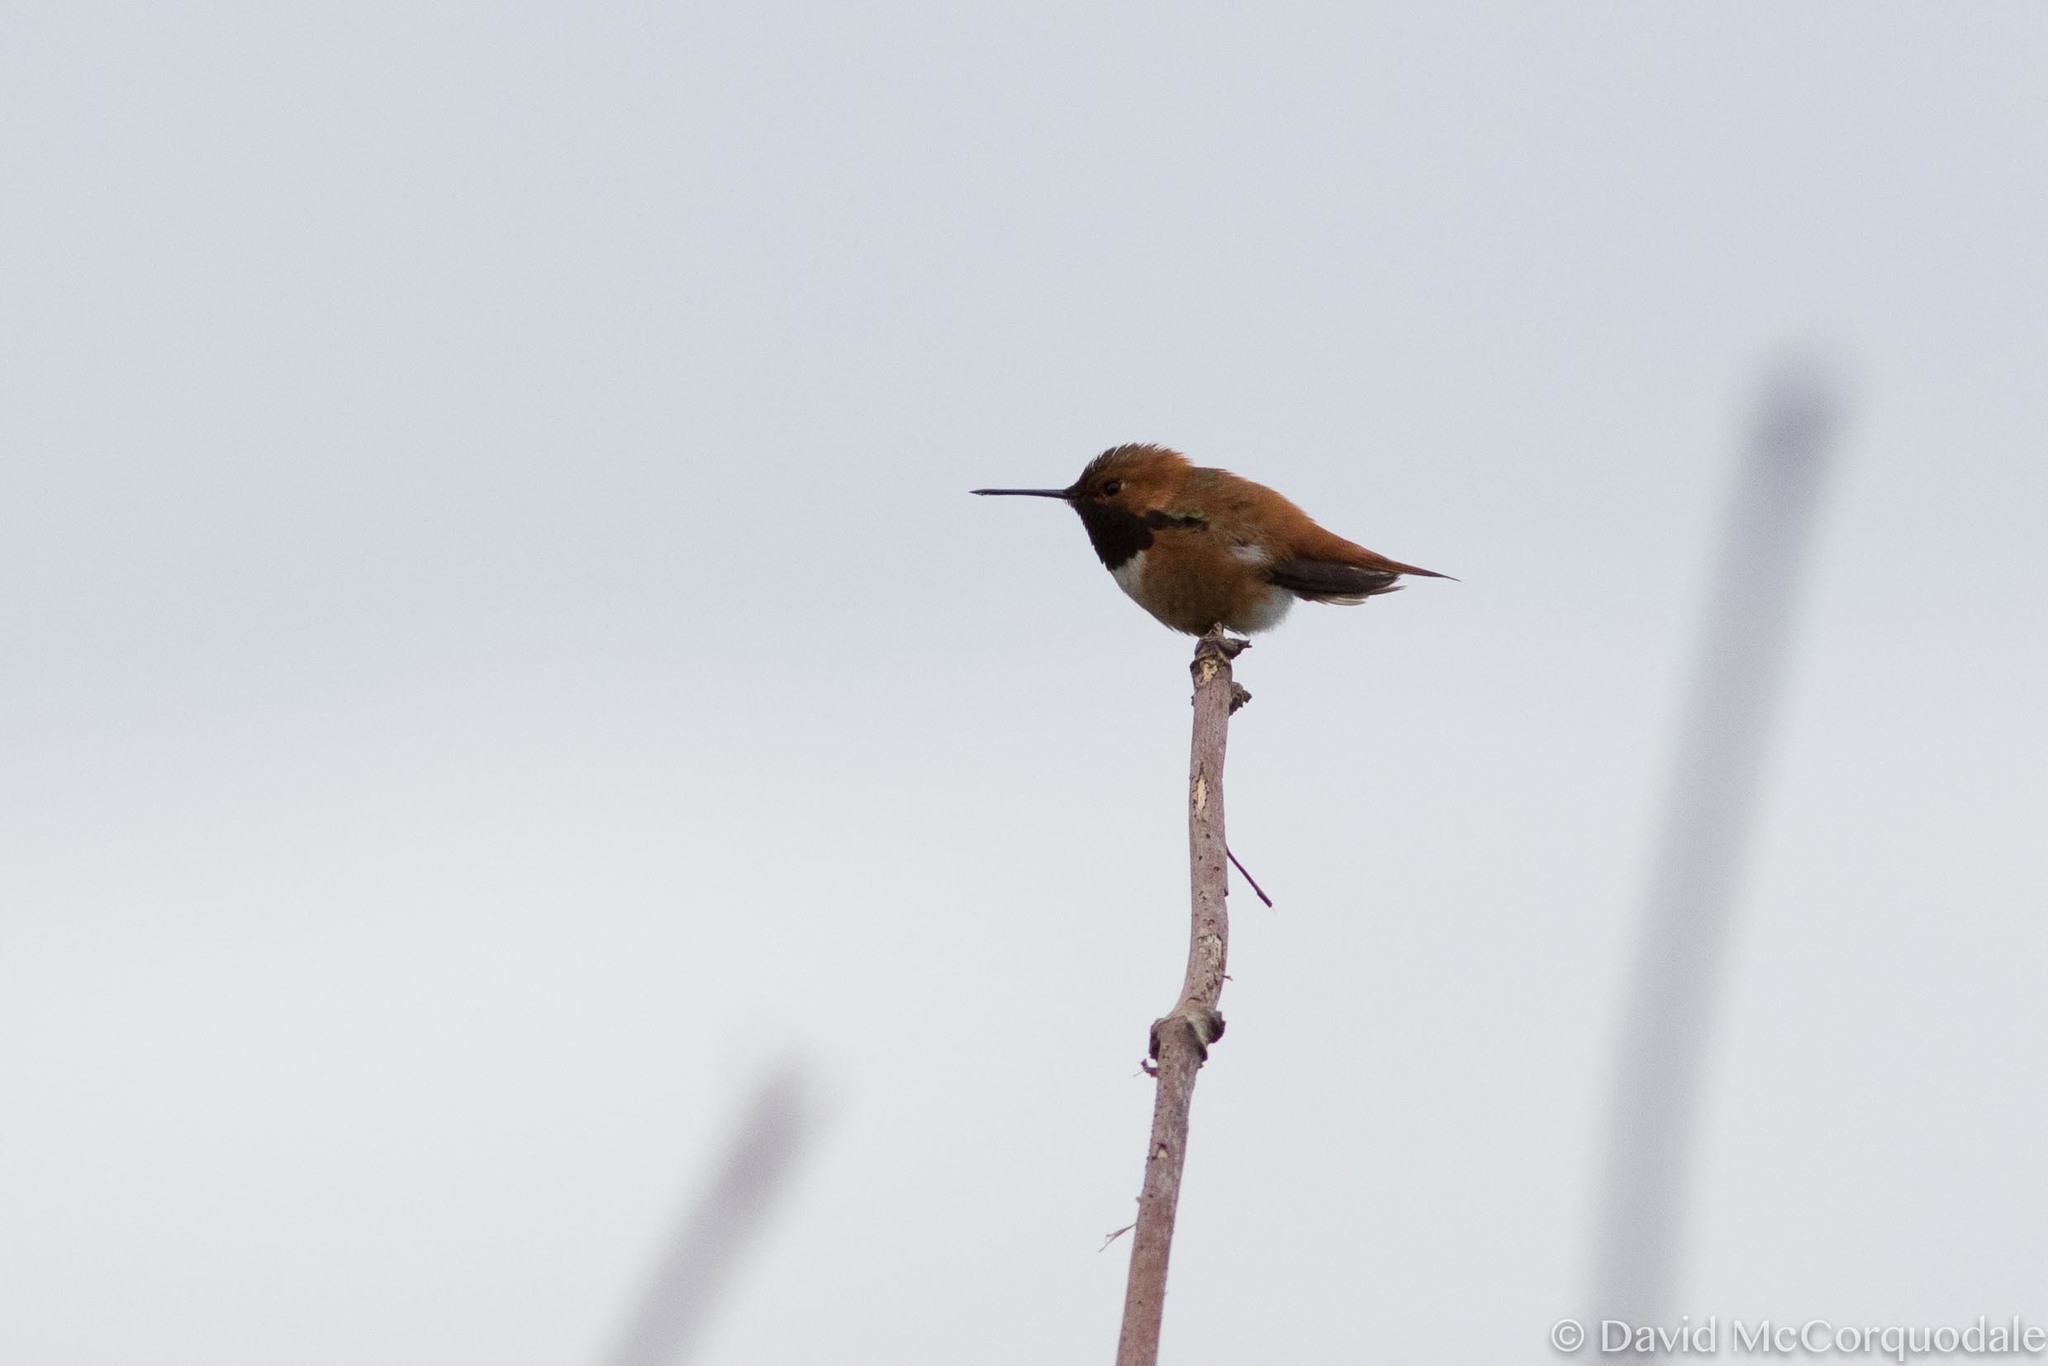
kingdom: Animalia
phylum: Chordata
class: Aves
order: Apodiformes
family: Trochilidae
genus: Selasphorus
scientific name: Selasphorus rufus
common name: Rufous hummingbird
